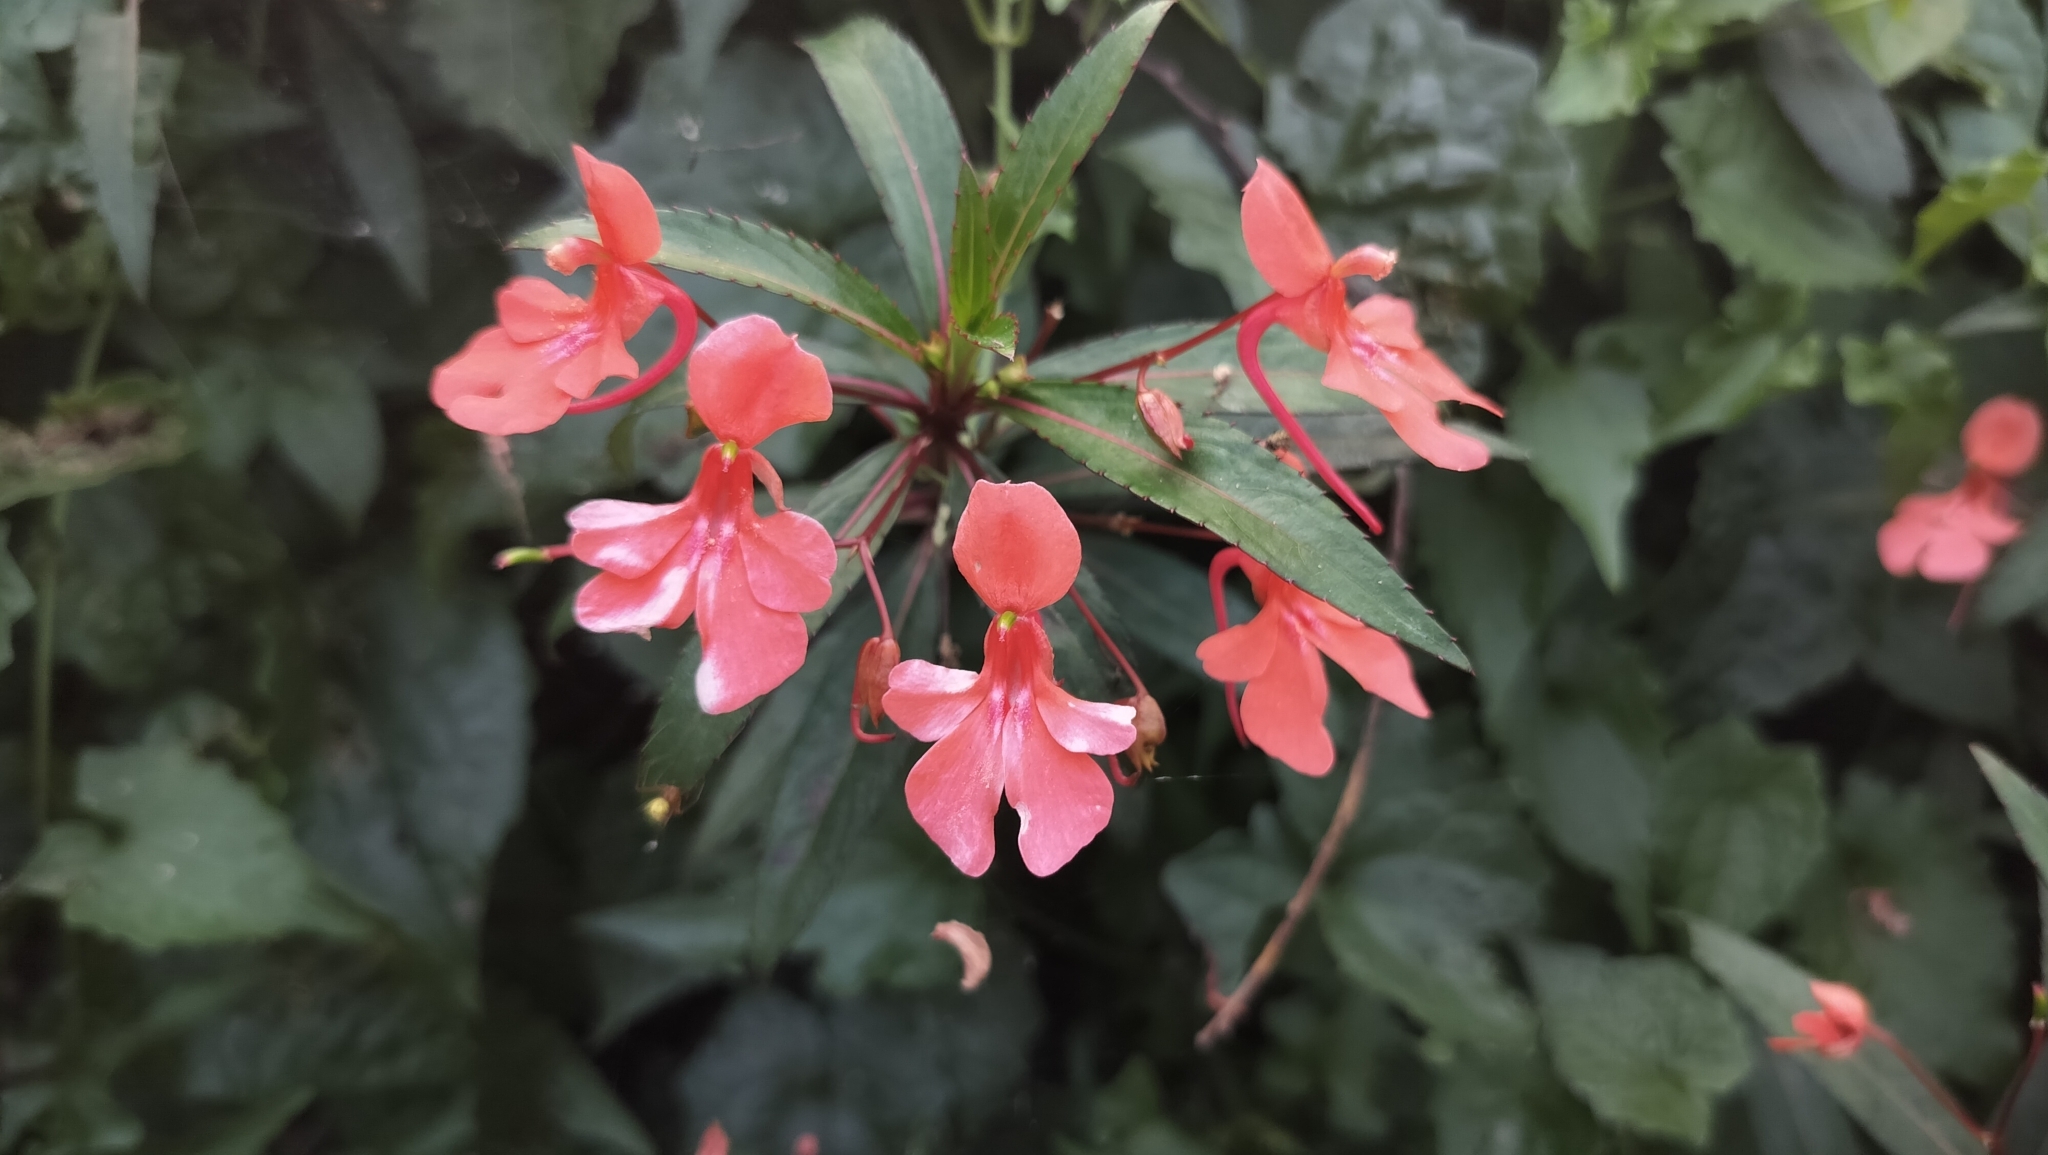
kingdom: Plantae
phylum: Tracheophyta
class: Magnoliopsida
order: Ericales
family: Balsaminaceae
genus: Impatiens
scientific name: Impatiens verticillata
